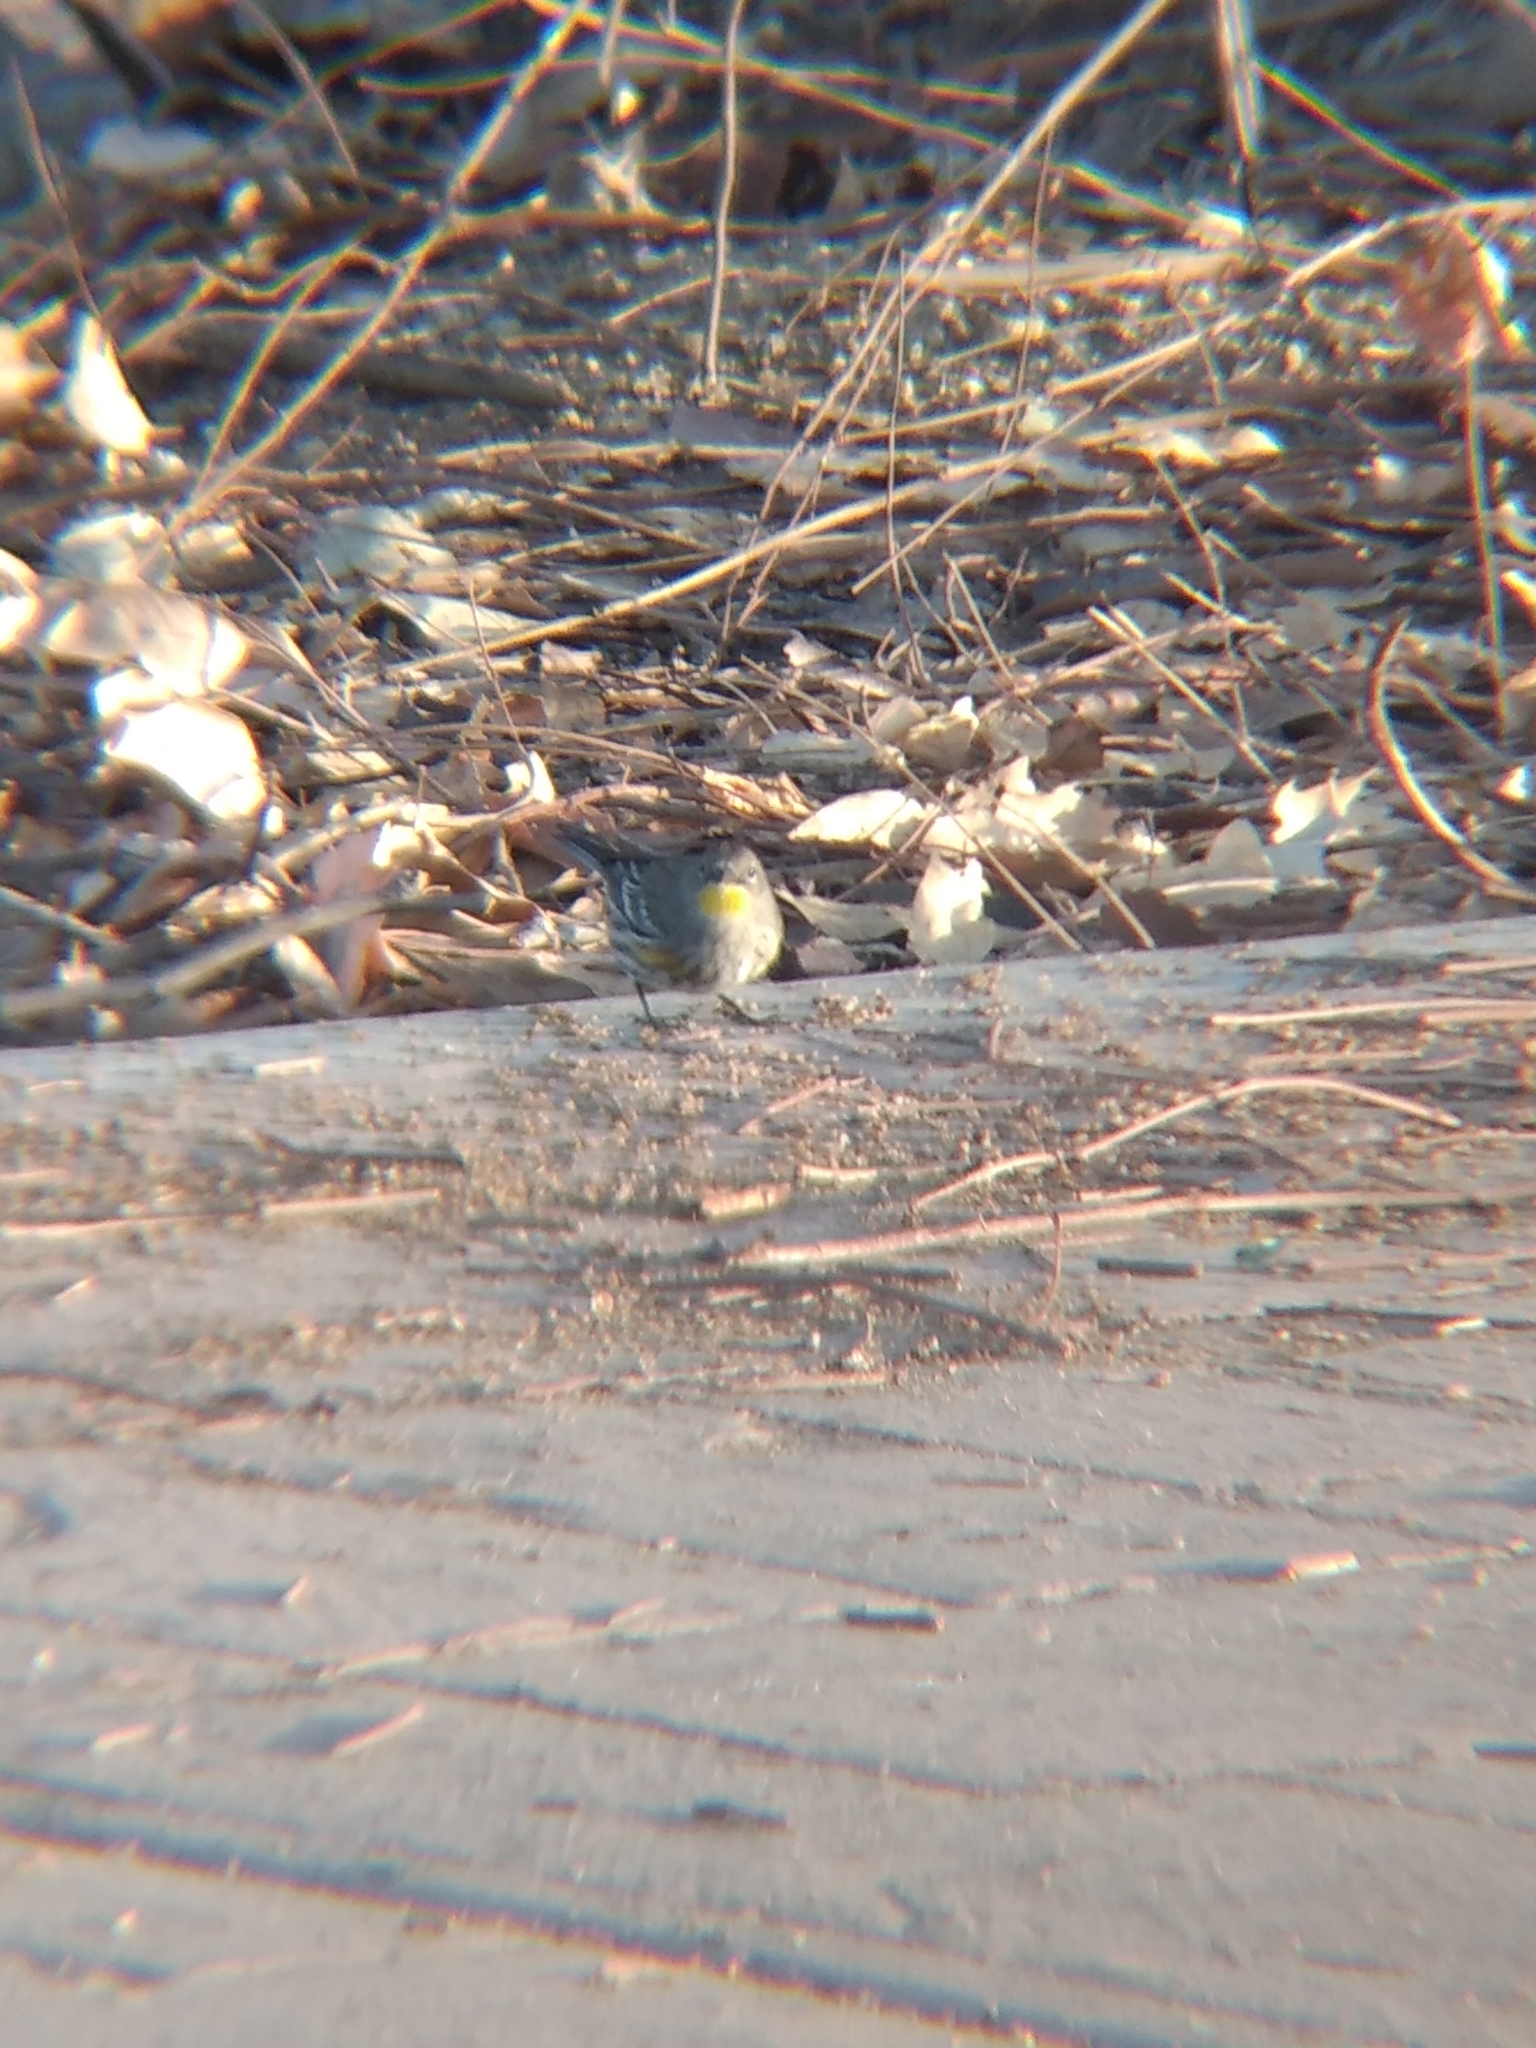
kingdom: Animalia
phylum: Chordata
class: Aves
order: Passeriformes
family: Parulidae
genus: Setophaga
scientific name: Setophaga coronata
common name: Myrtle warbler
